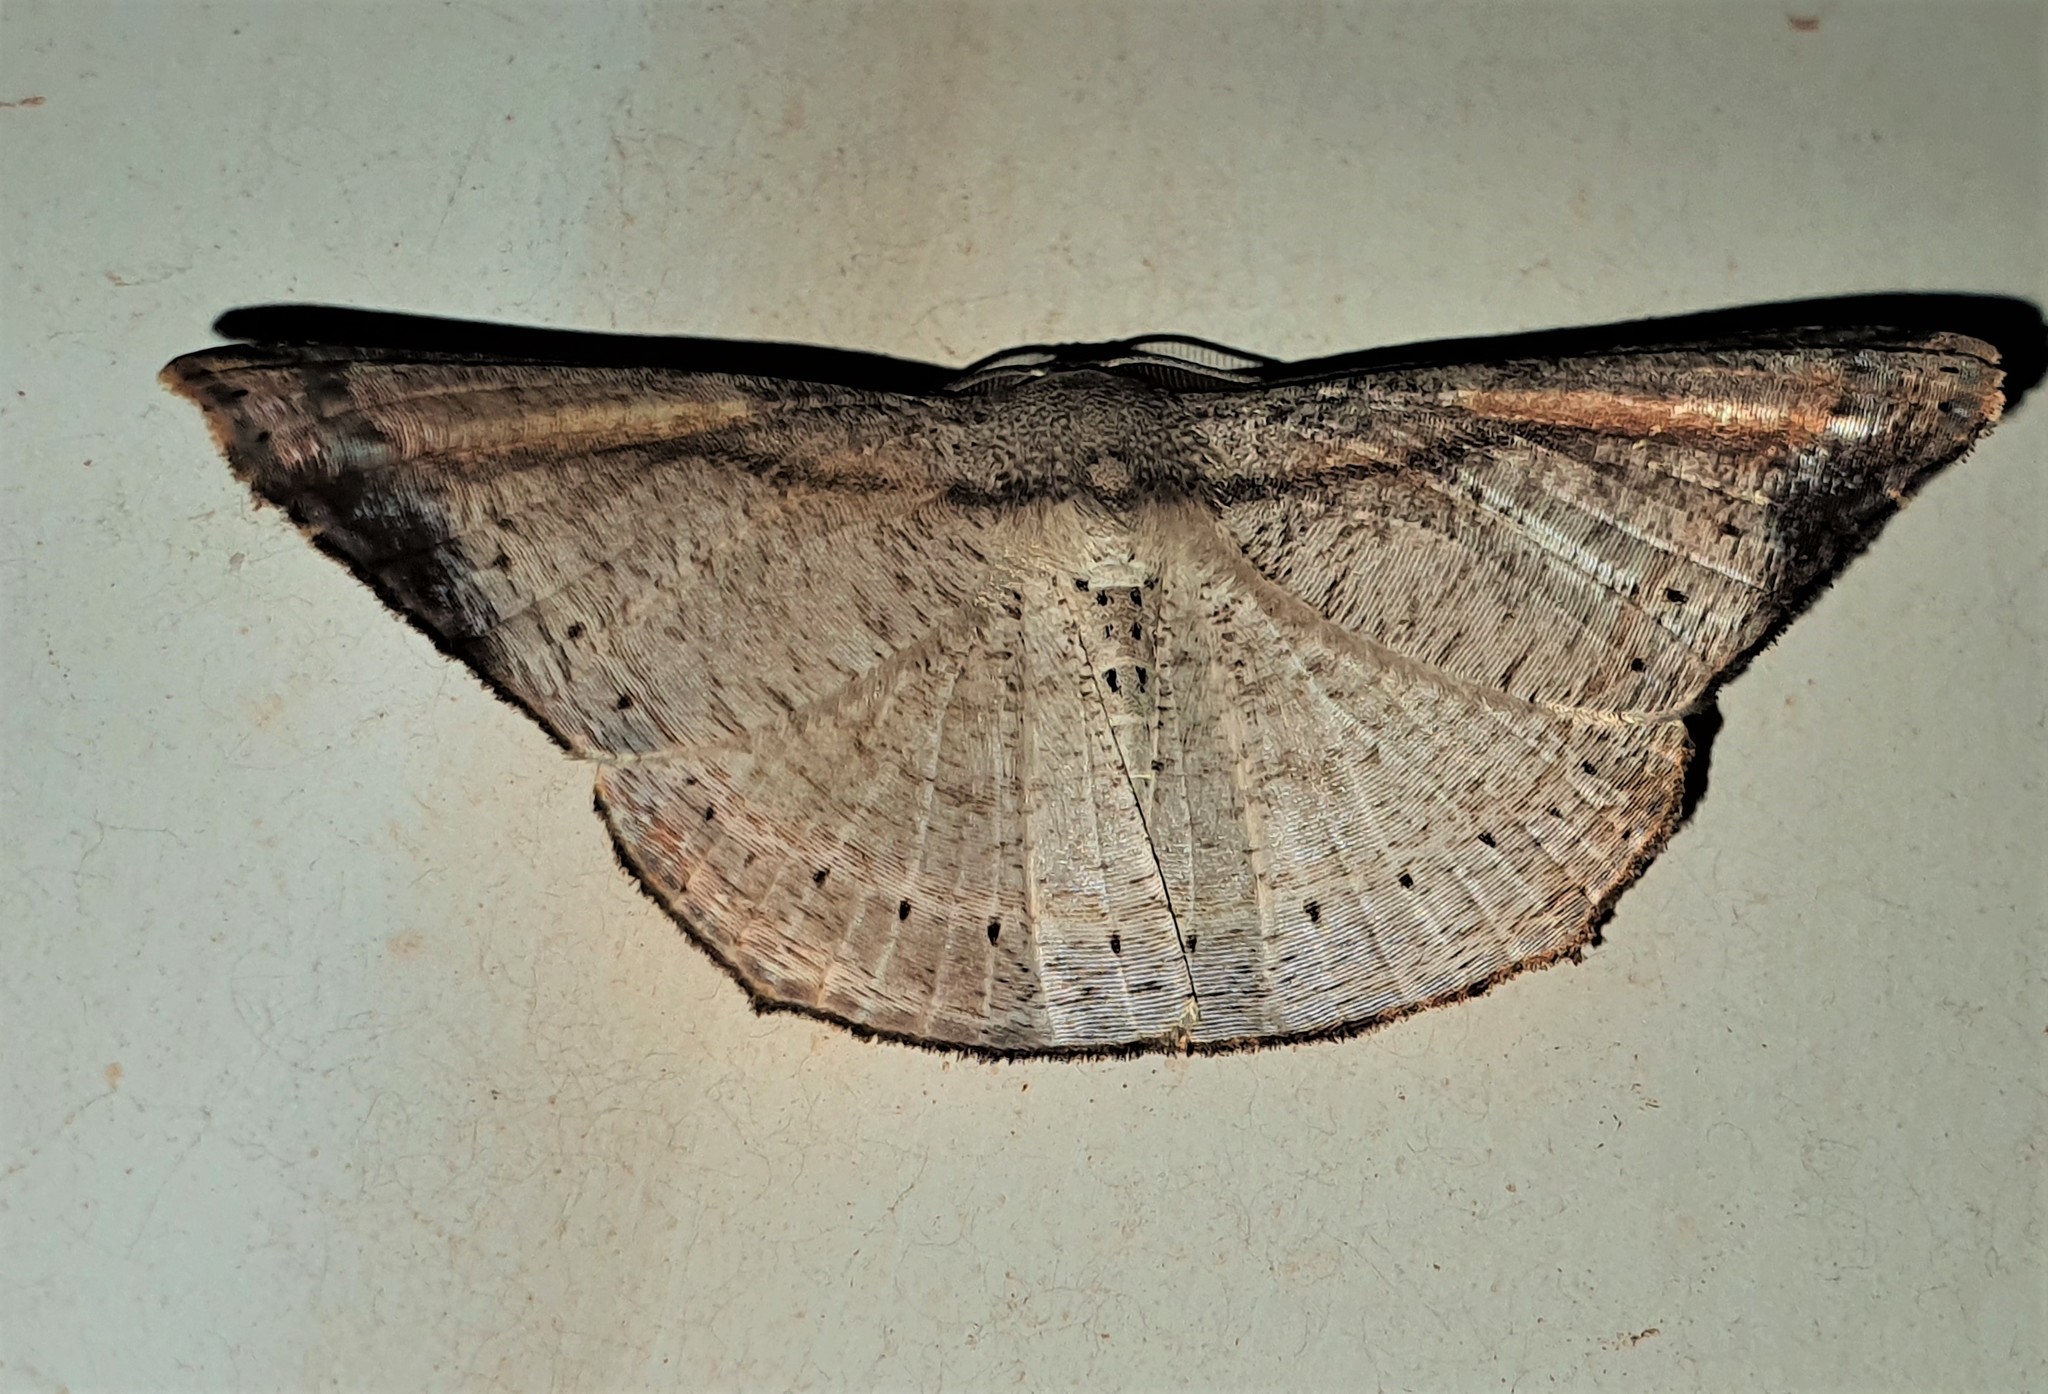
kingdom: Animalia
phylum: Arthropoda
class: Insecta
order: Lepidoptera
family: Uraniidae
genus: Molybdophora
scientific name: Molybdophora concinnularia
